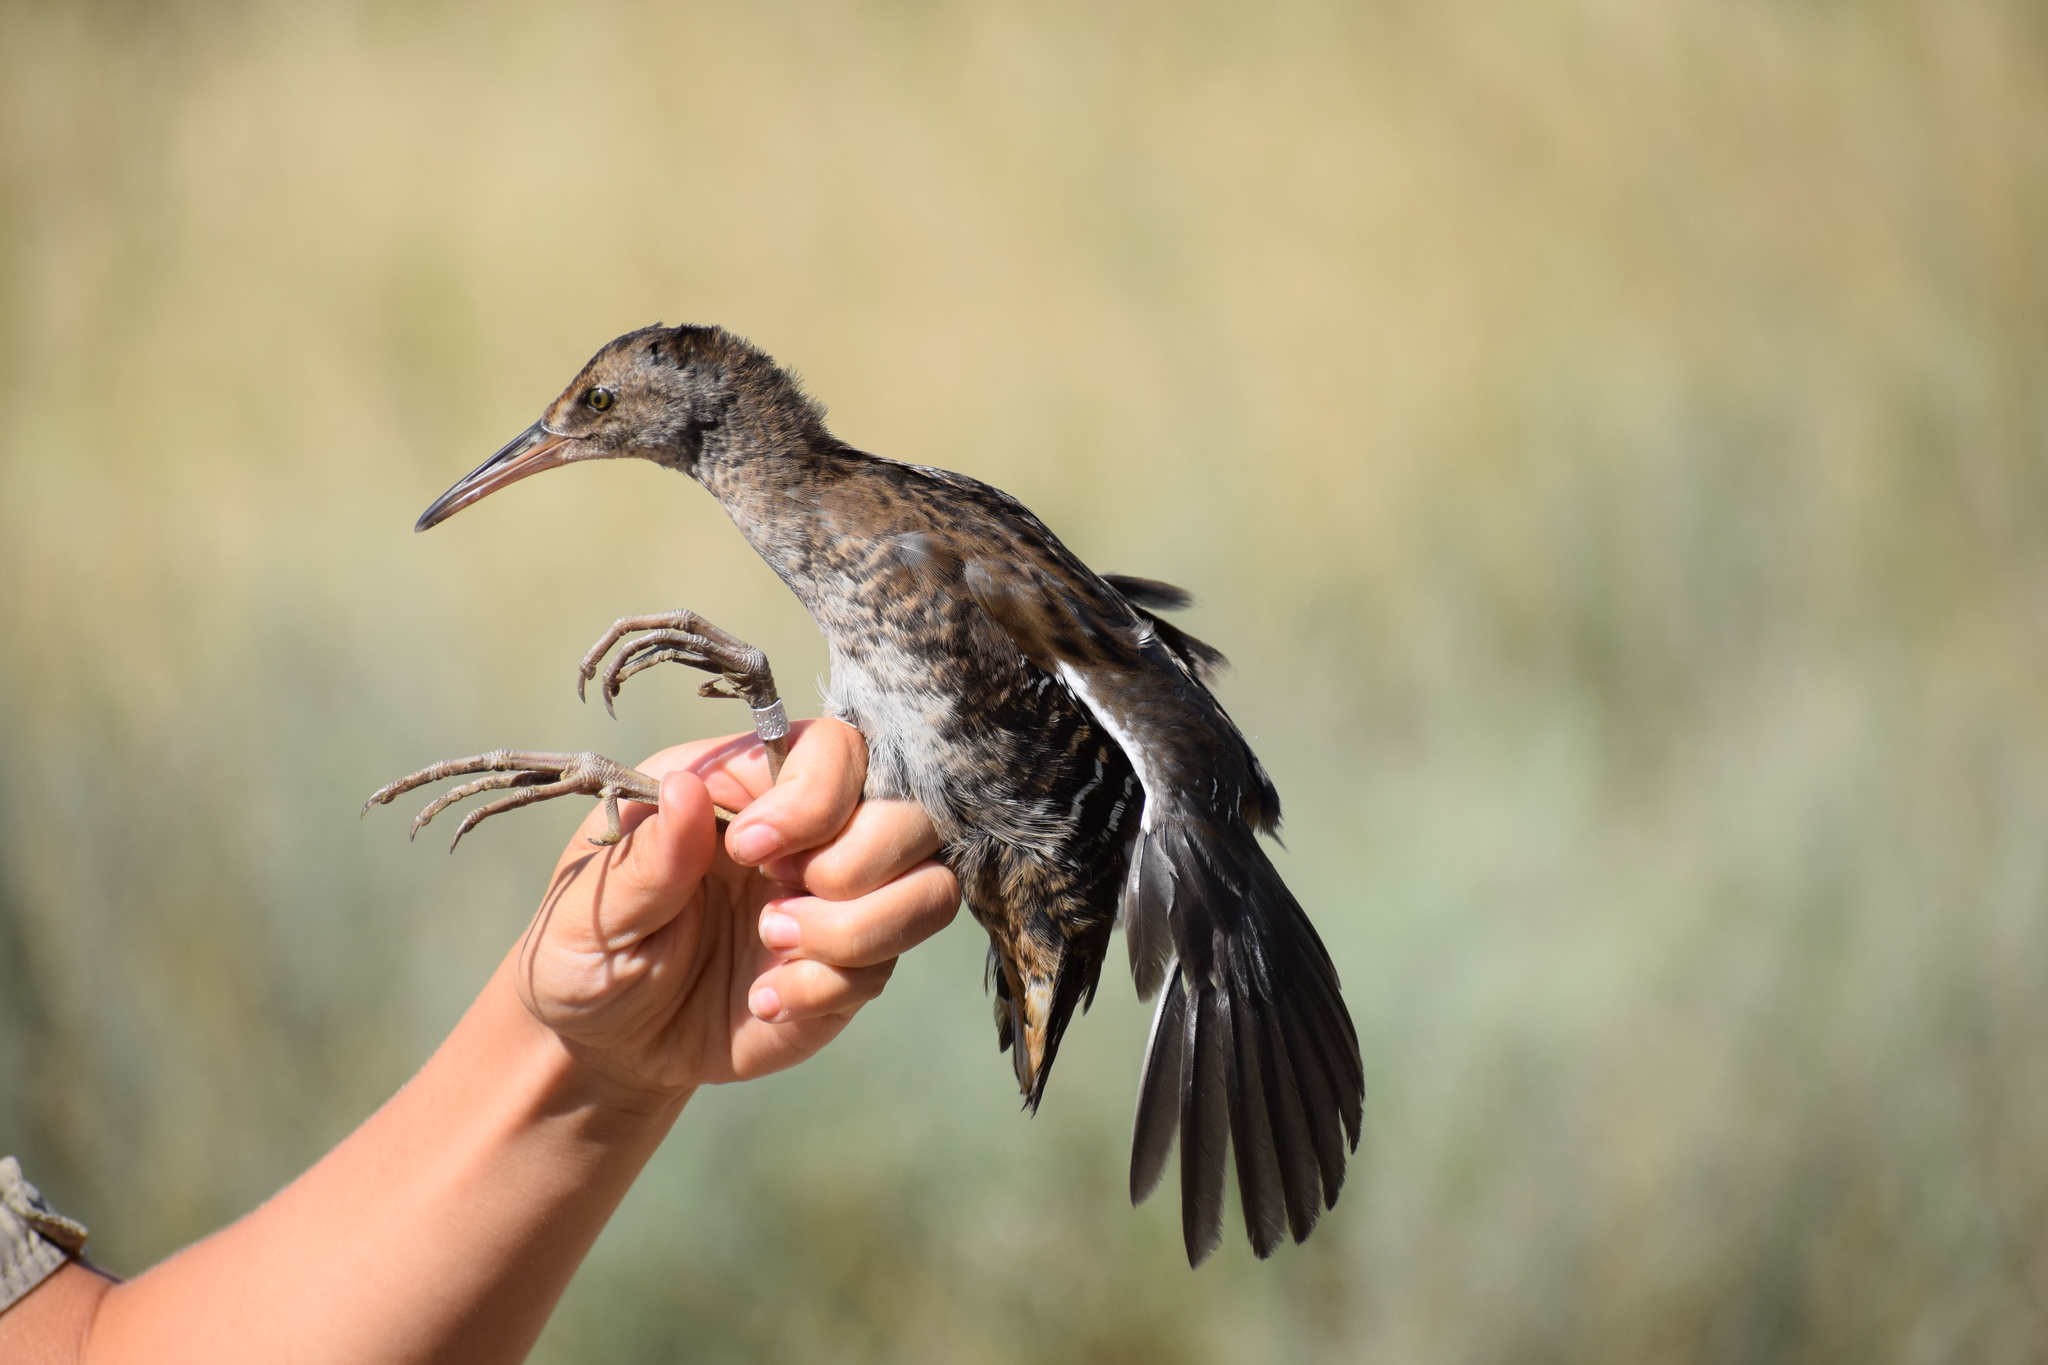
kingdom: Animalia
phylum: Chordata
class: Aves
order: Gruiformes
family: Rallidae
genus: Rallus
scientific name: Rallus aquaticus
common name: Water rail
